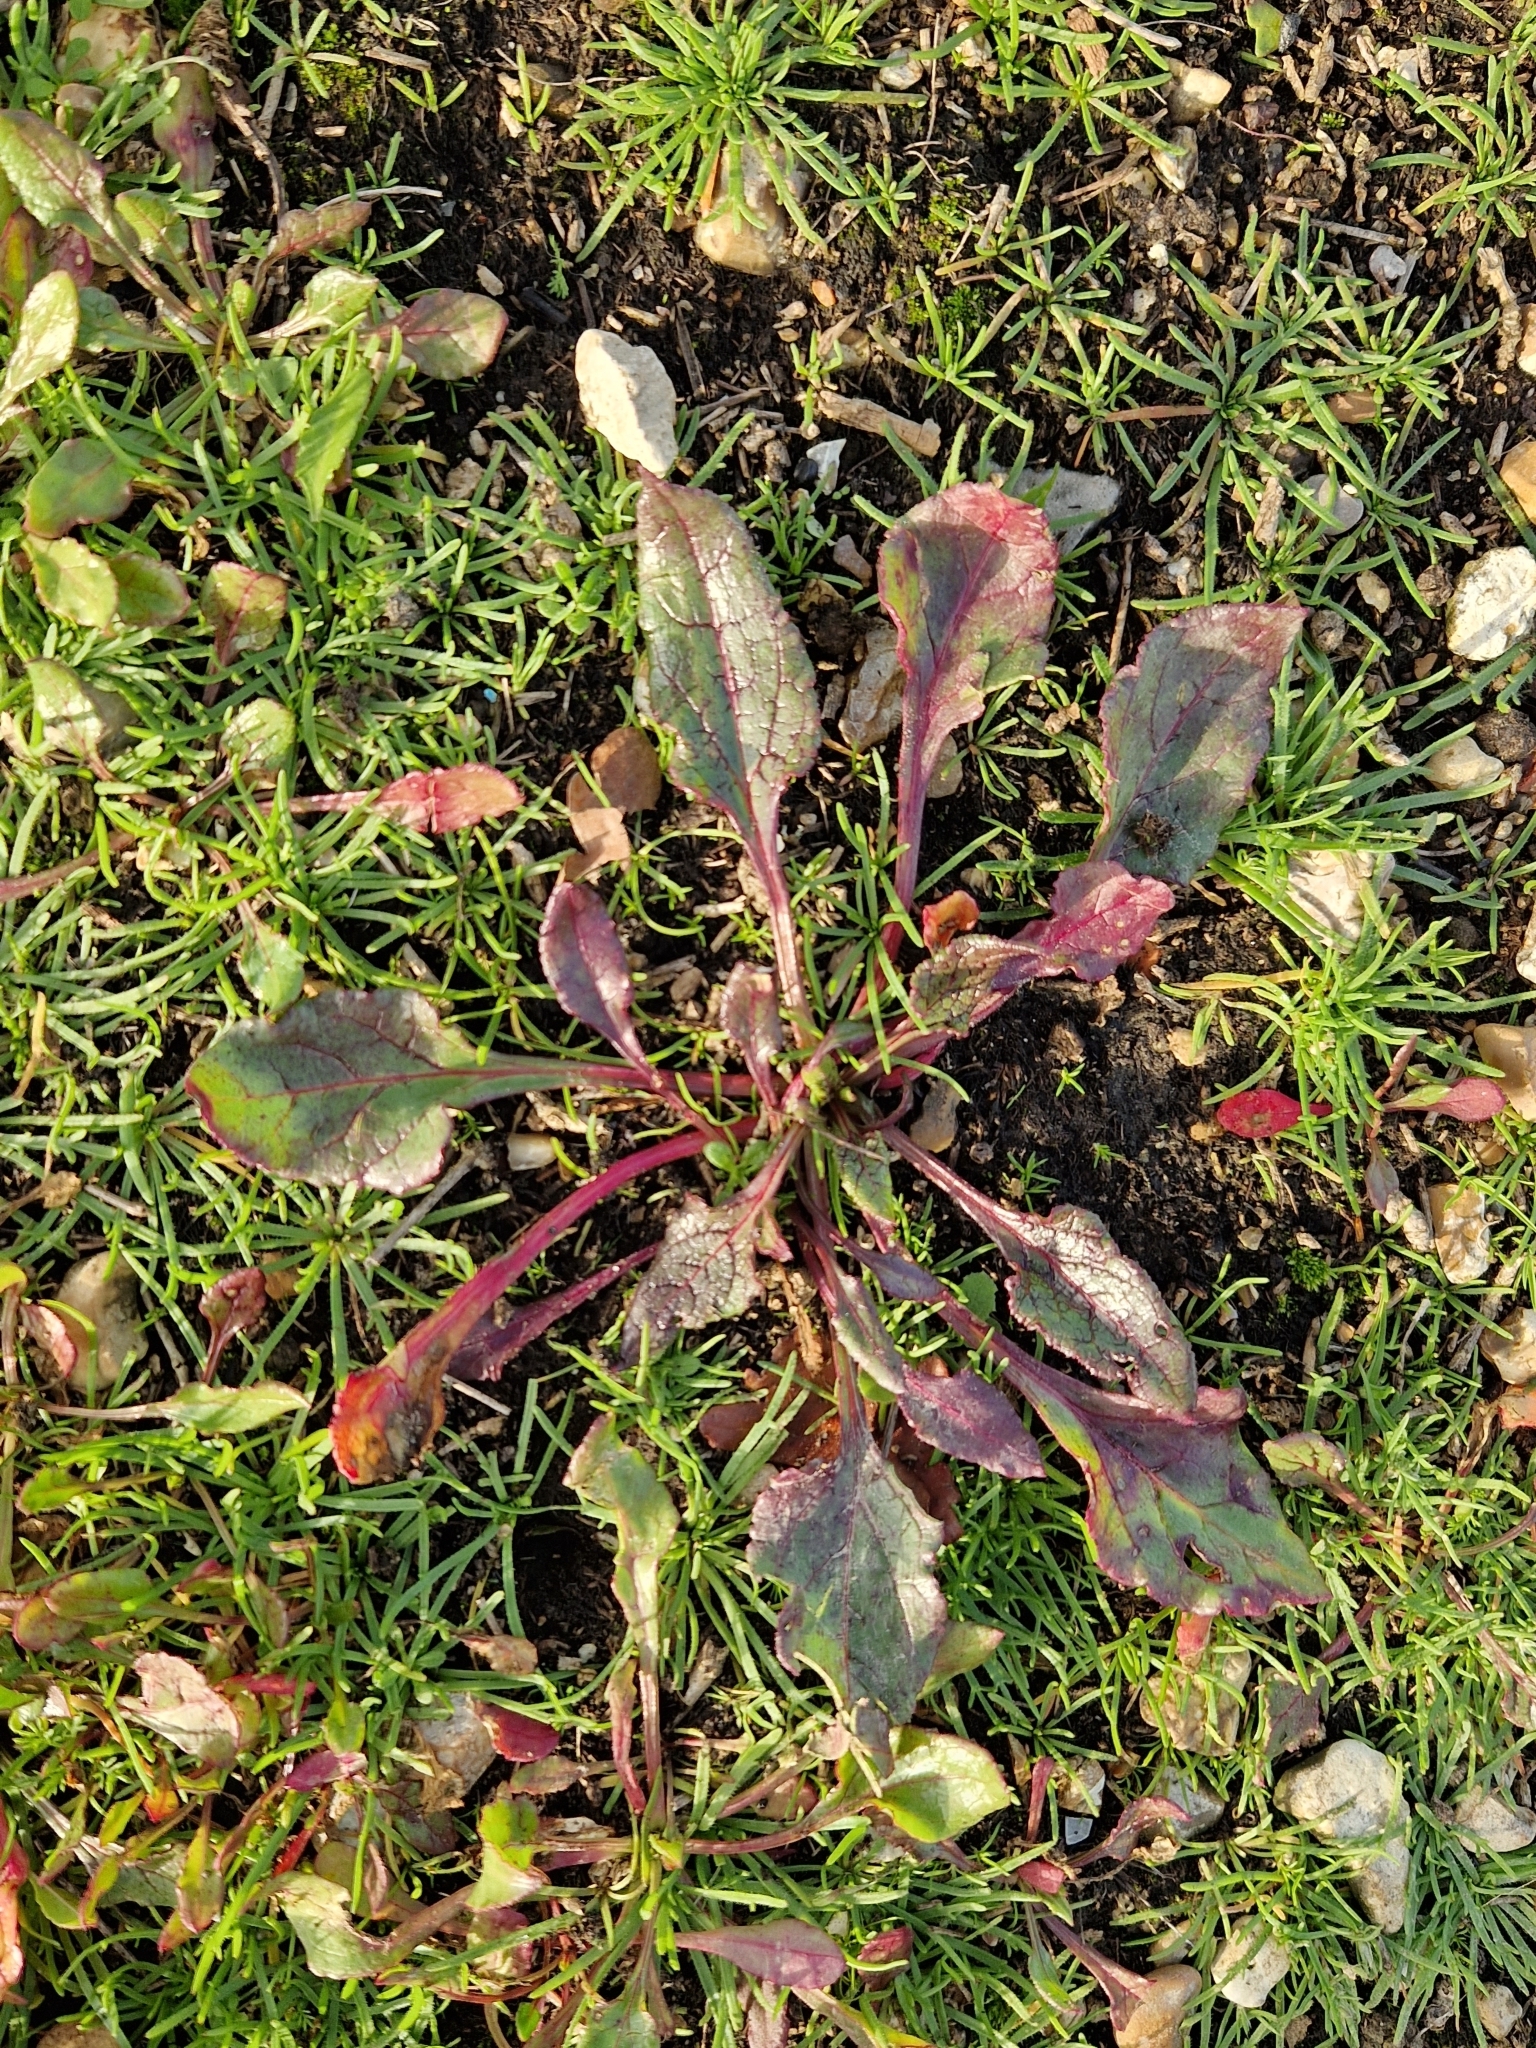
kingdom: Plantae
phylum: Tracheophyta
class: Magnoliopsida
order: Caryophyllales
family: Amaranthaceae
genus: Beta
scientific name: Beta vulgaris
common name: Beet
